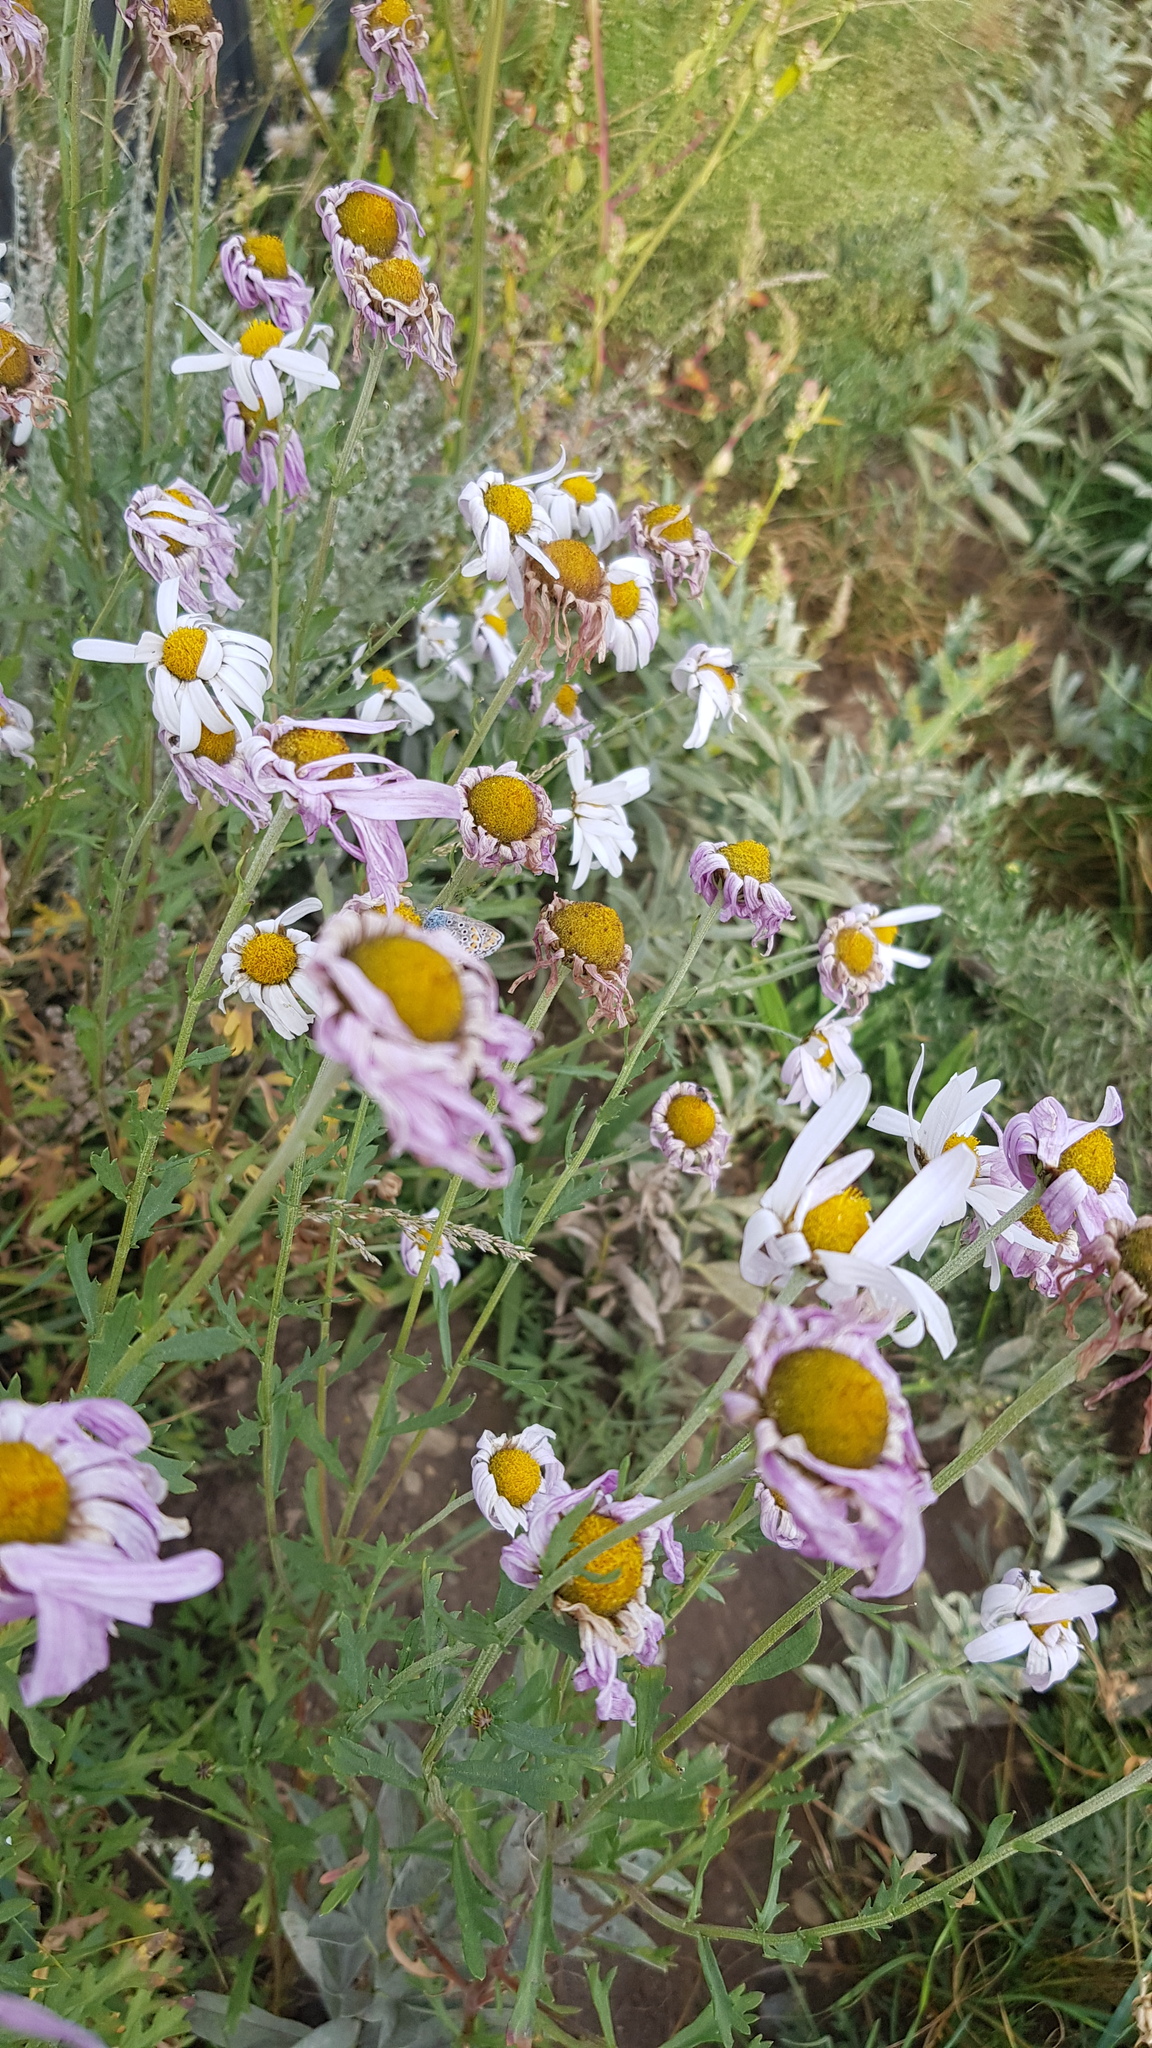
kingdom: Plantae
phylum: Tracheophyta
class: Magnoliopsida
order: Asterales
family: Asteraceae
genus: Chrysanthemum
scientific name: Chrysanthemum zawadzkii
